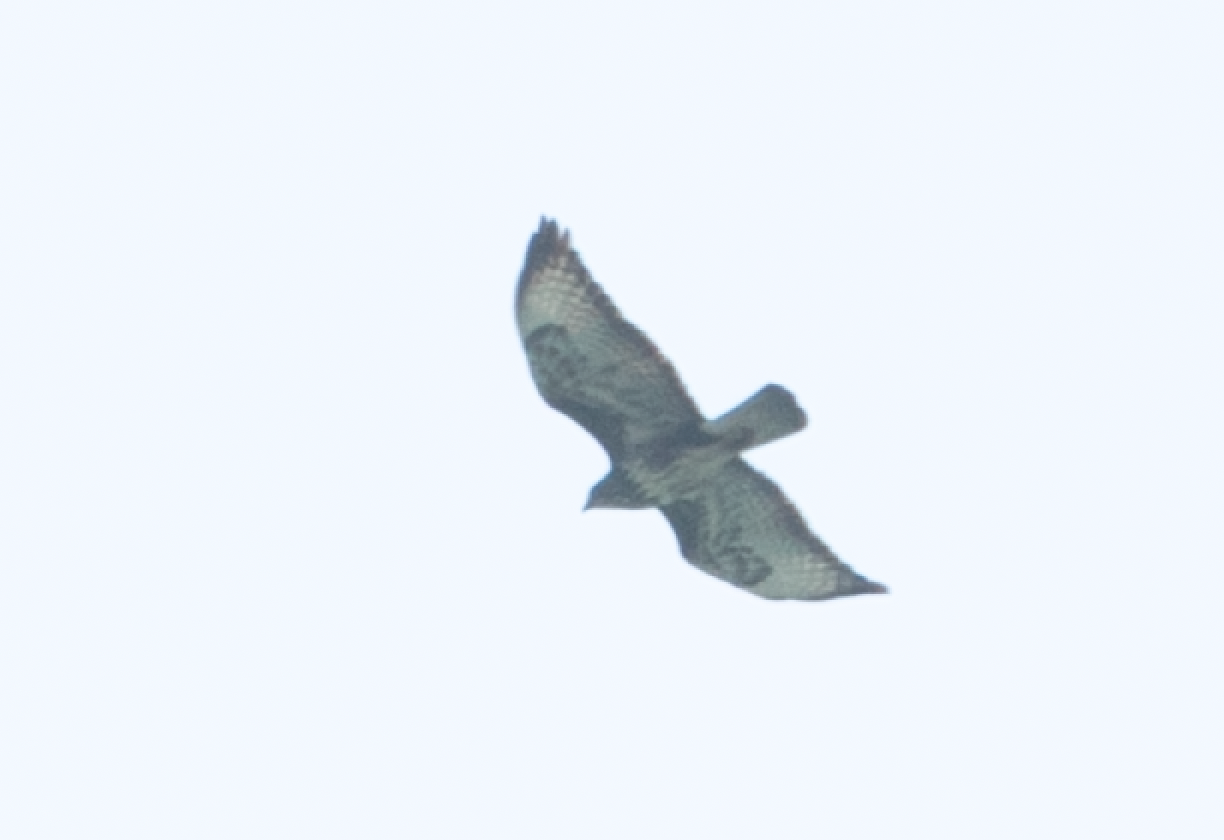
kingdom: Animalia
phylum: Chordata
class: Aves
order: Accipitriformes
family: Accipitridae
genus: Buteo
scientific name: Buteo buteo
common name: Common buzzard
